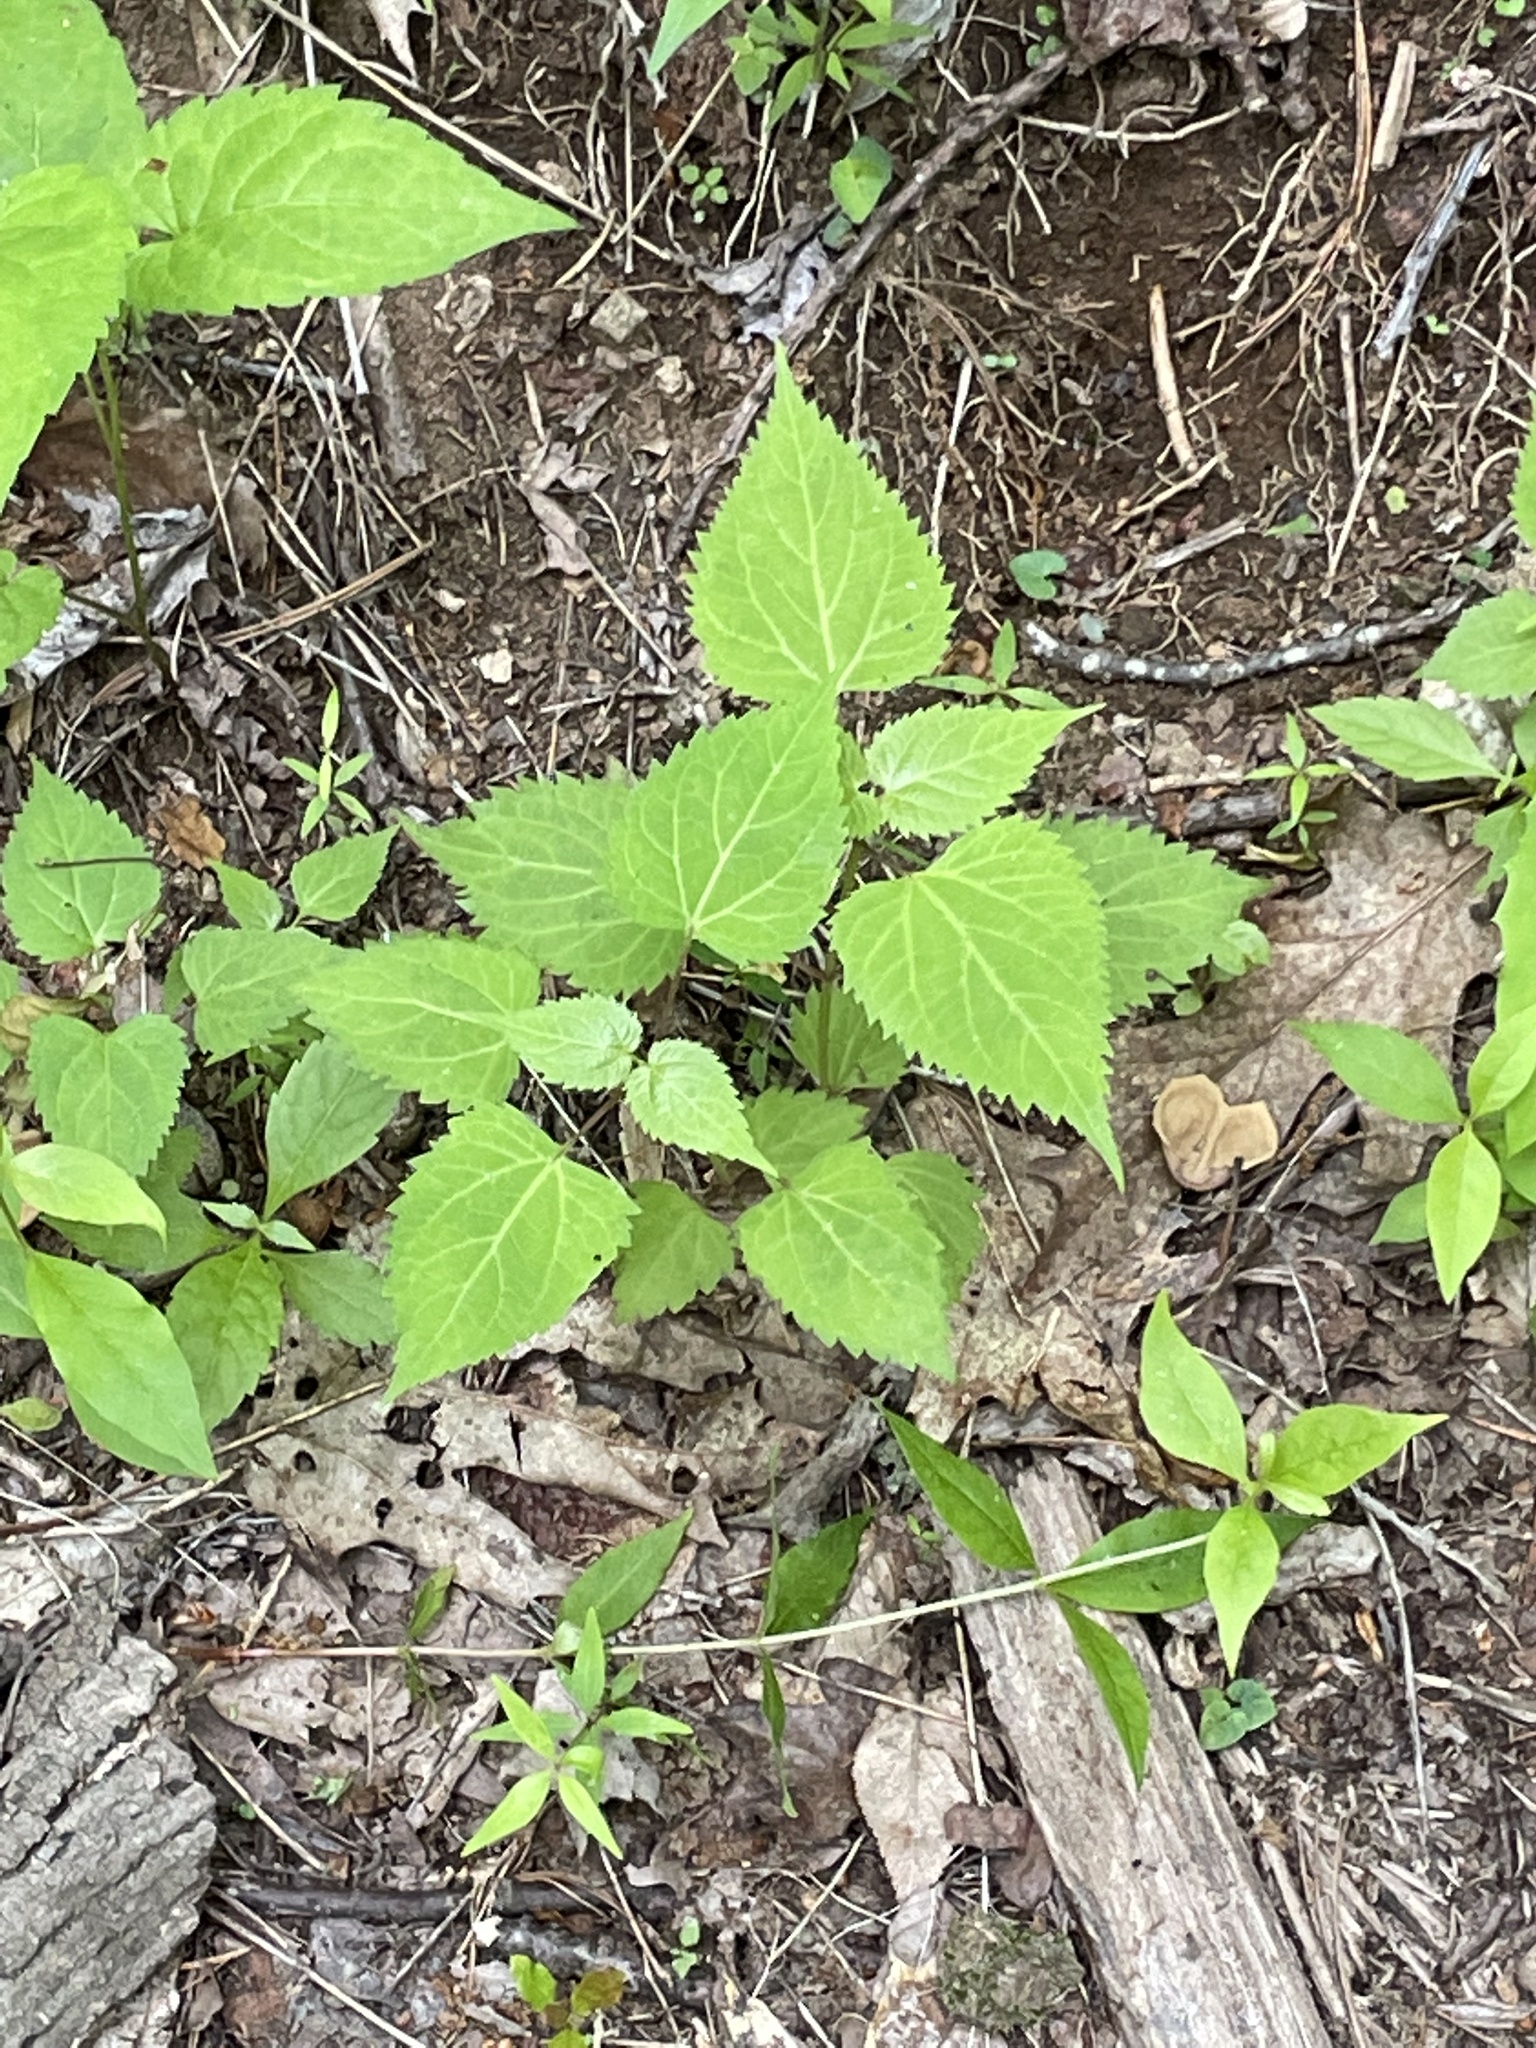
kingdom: Plantae
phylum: Tracheophyta
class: Magnoliopsida
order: Asterales
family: Asteraceae
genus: Ageratina
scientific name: Ageratina altissima
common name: White snakeroot
